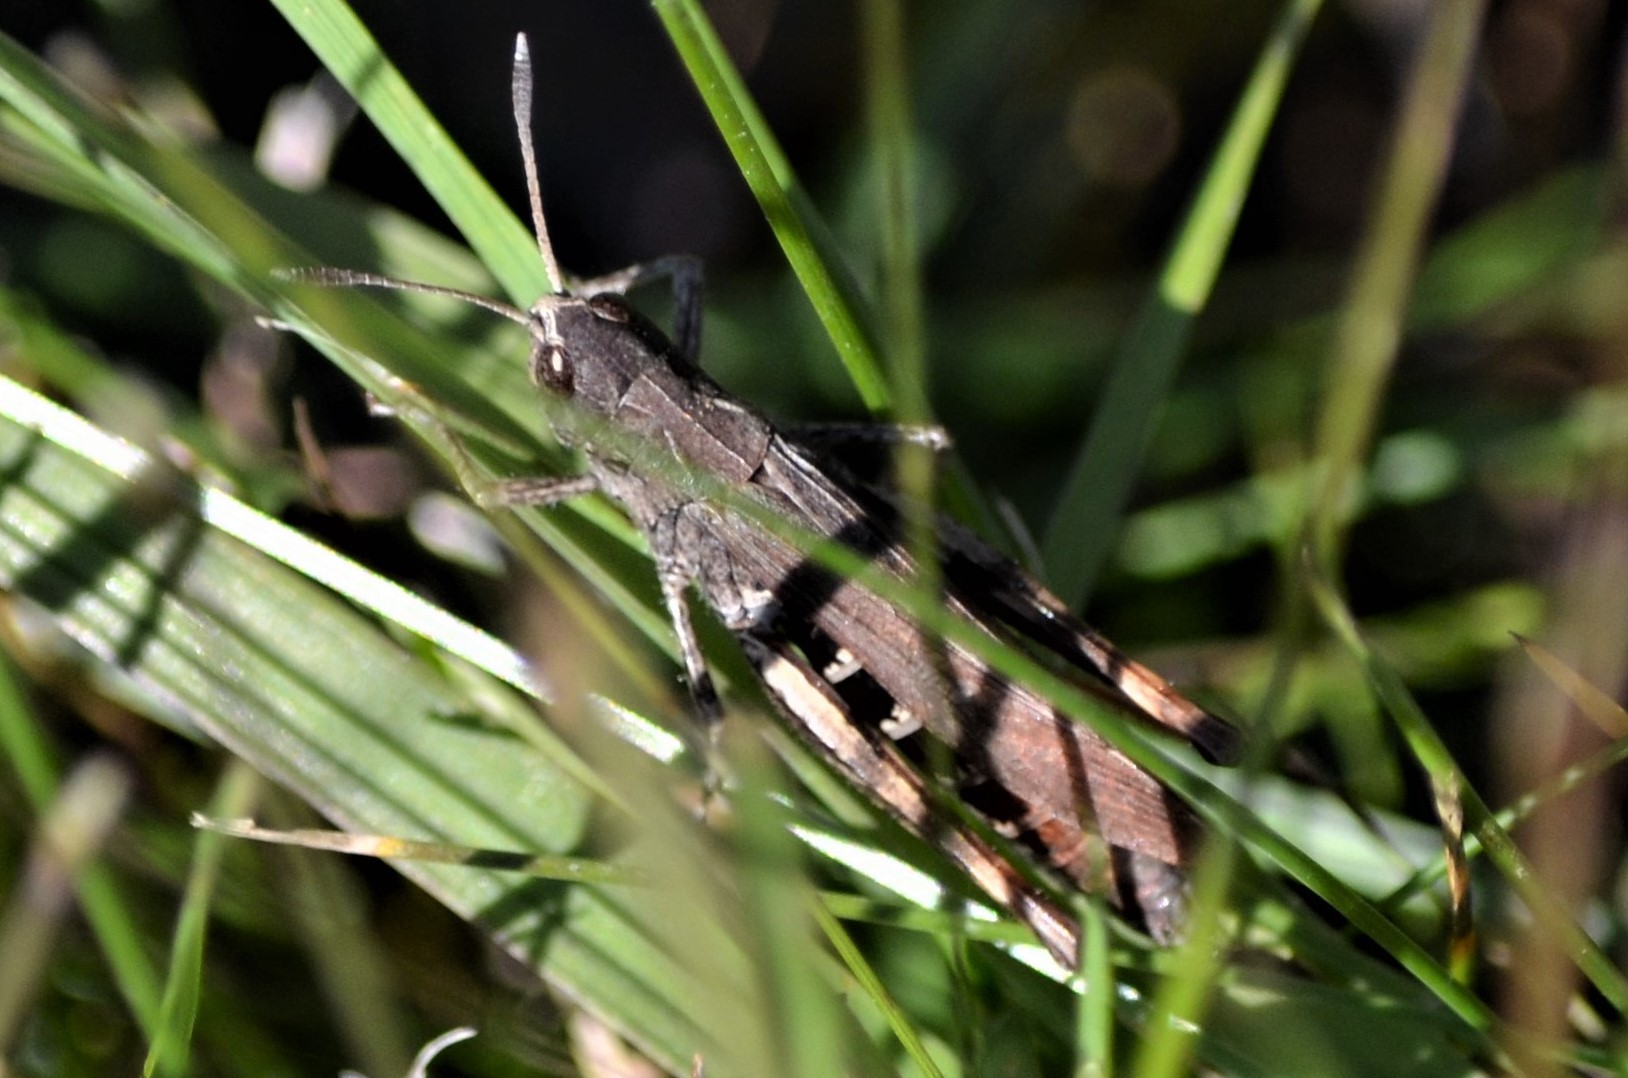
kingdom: Animalia
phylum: Arthropoda
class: Insecta
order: Orthoptera
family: Acrididae
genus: Gomphocerippus
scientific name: Gomphocerippus rufus
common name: Rufous grasshopper
